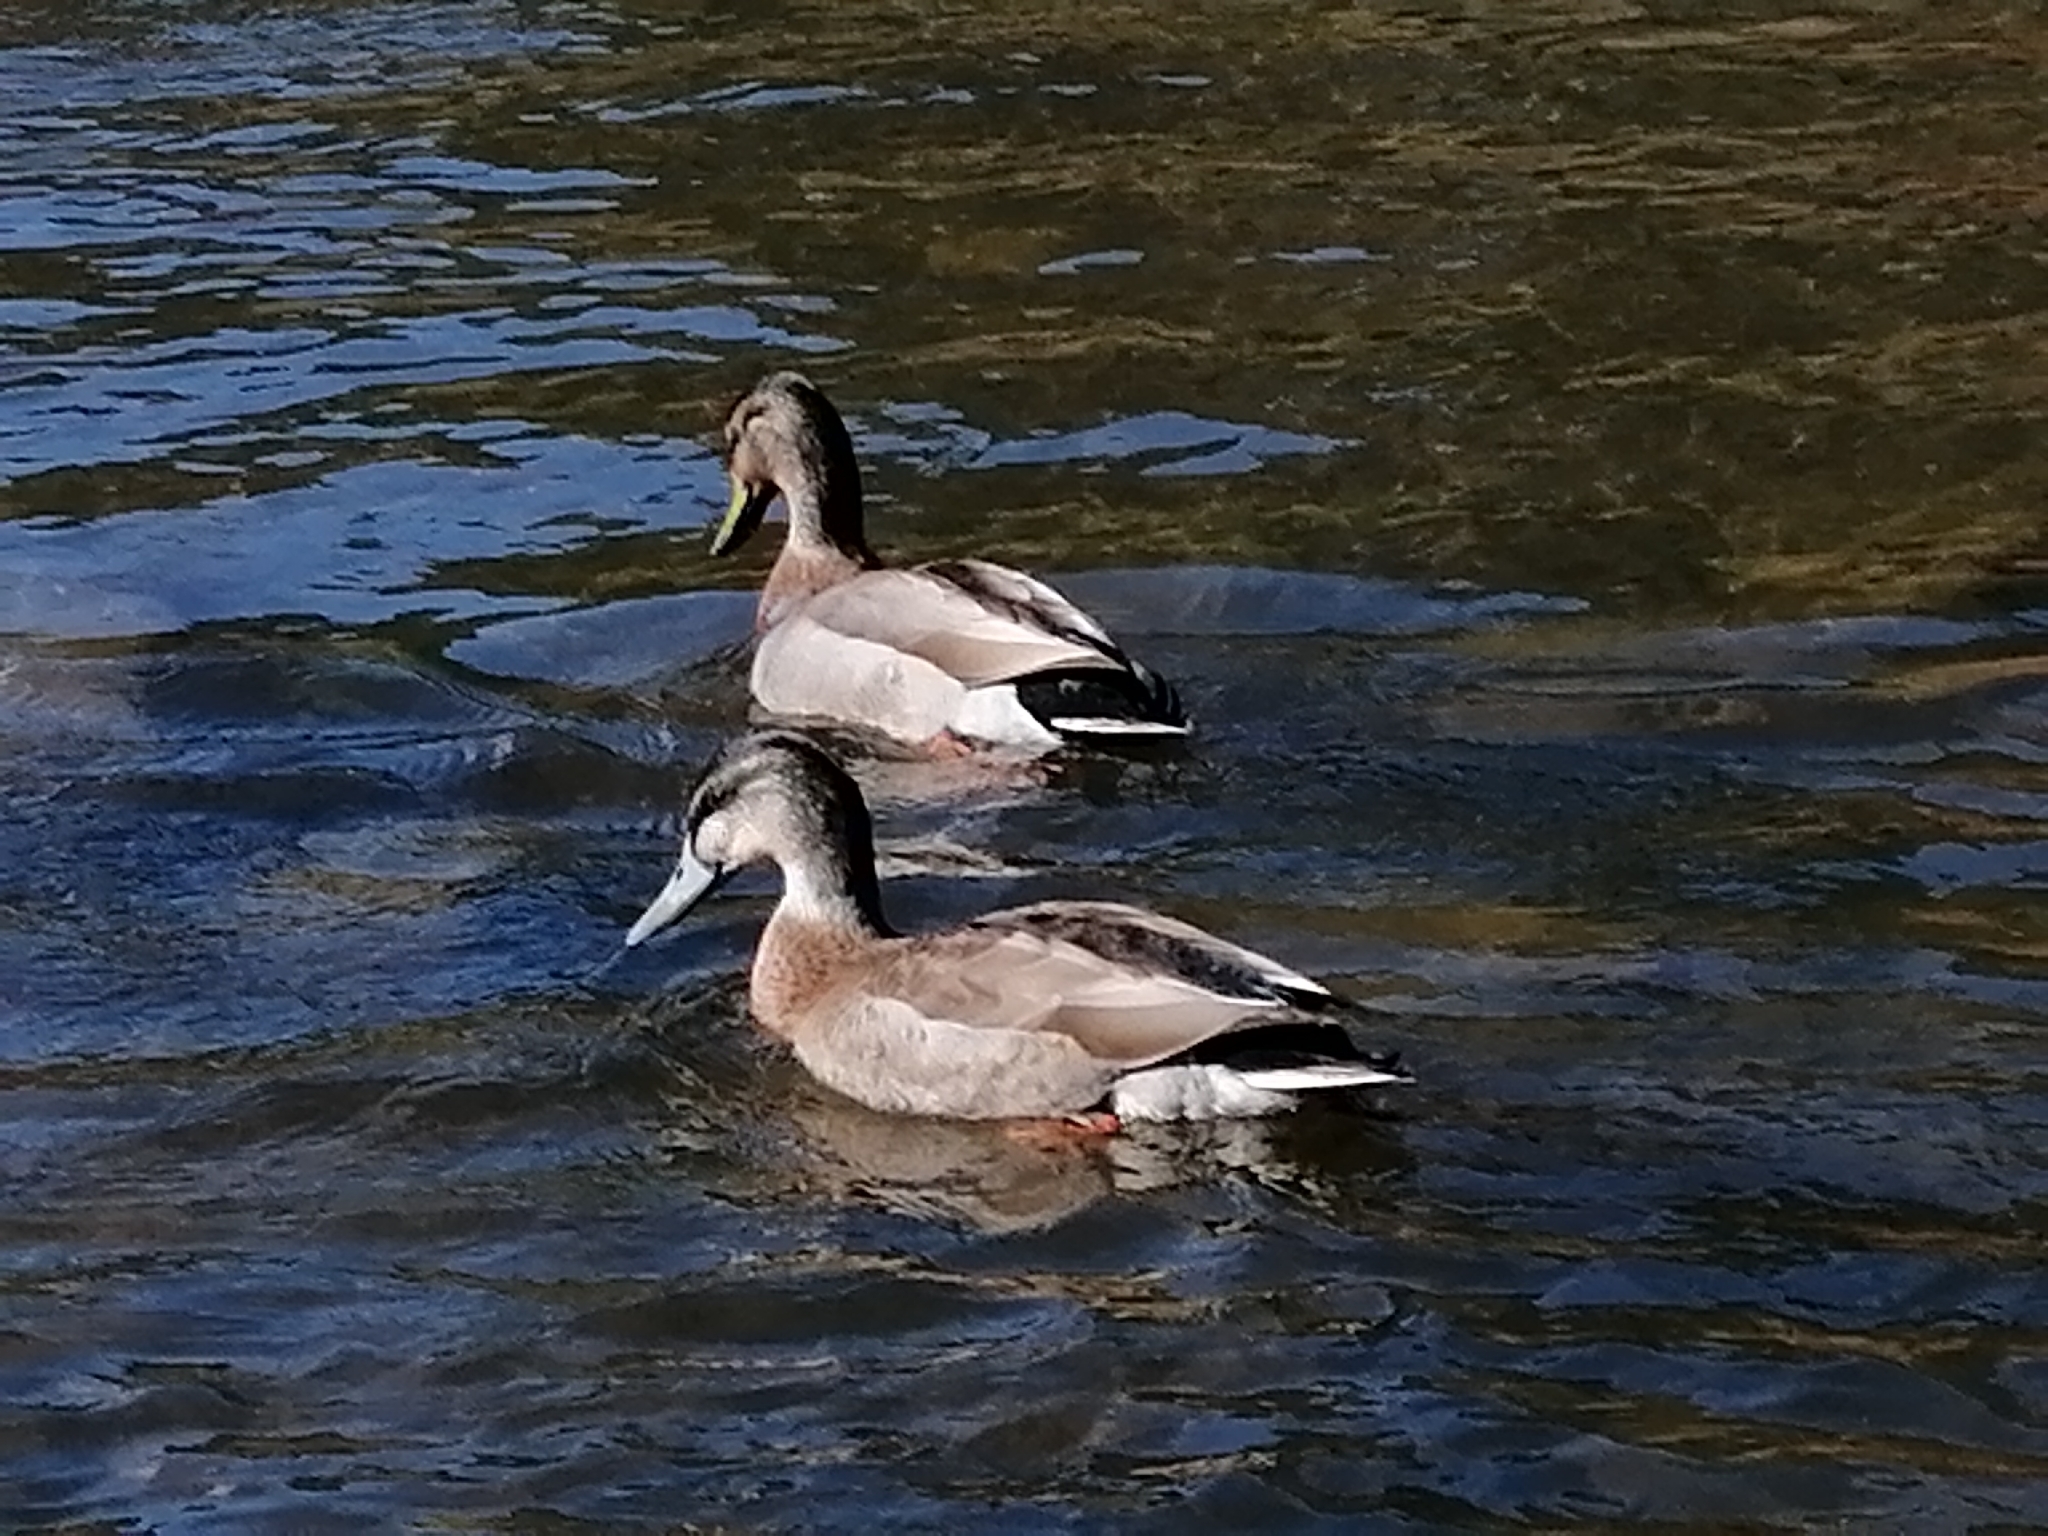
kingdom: Animalia
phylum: Chordata
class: Aves
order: Anseriformes
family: Anatidae
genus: Anas
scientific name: Anas platyrhynchos
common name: Mallard
